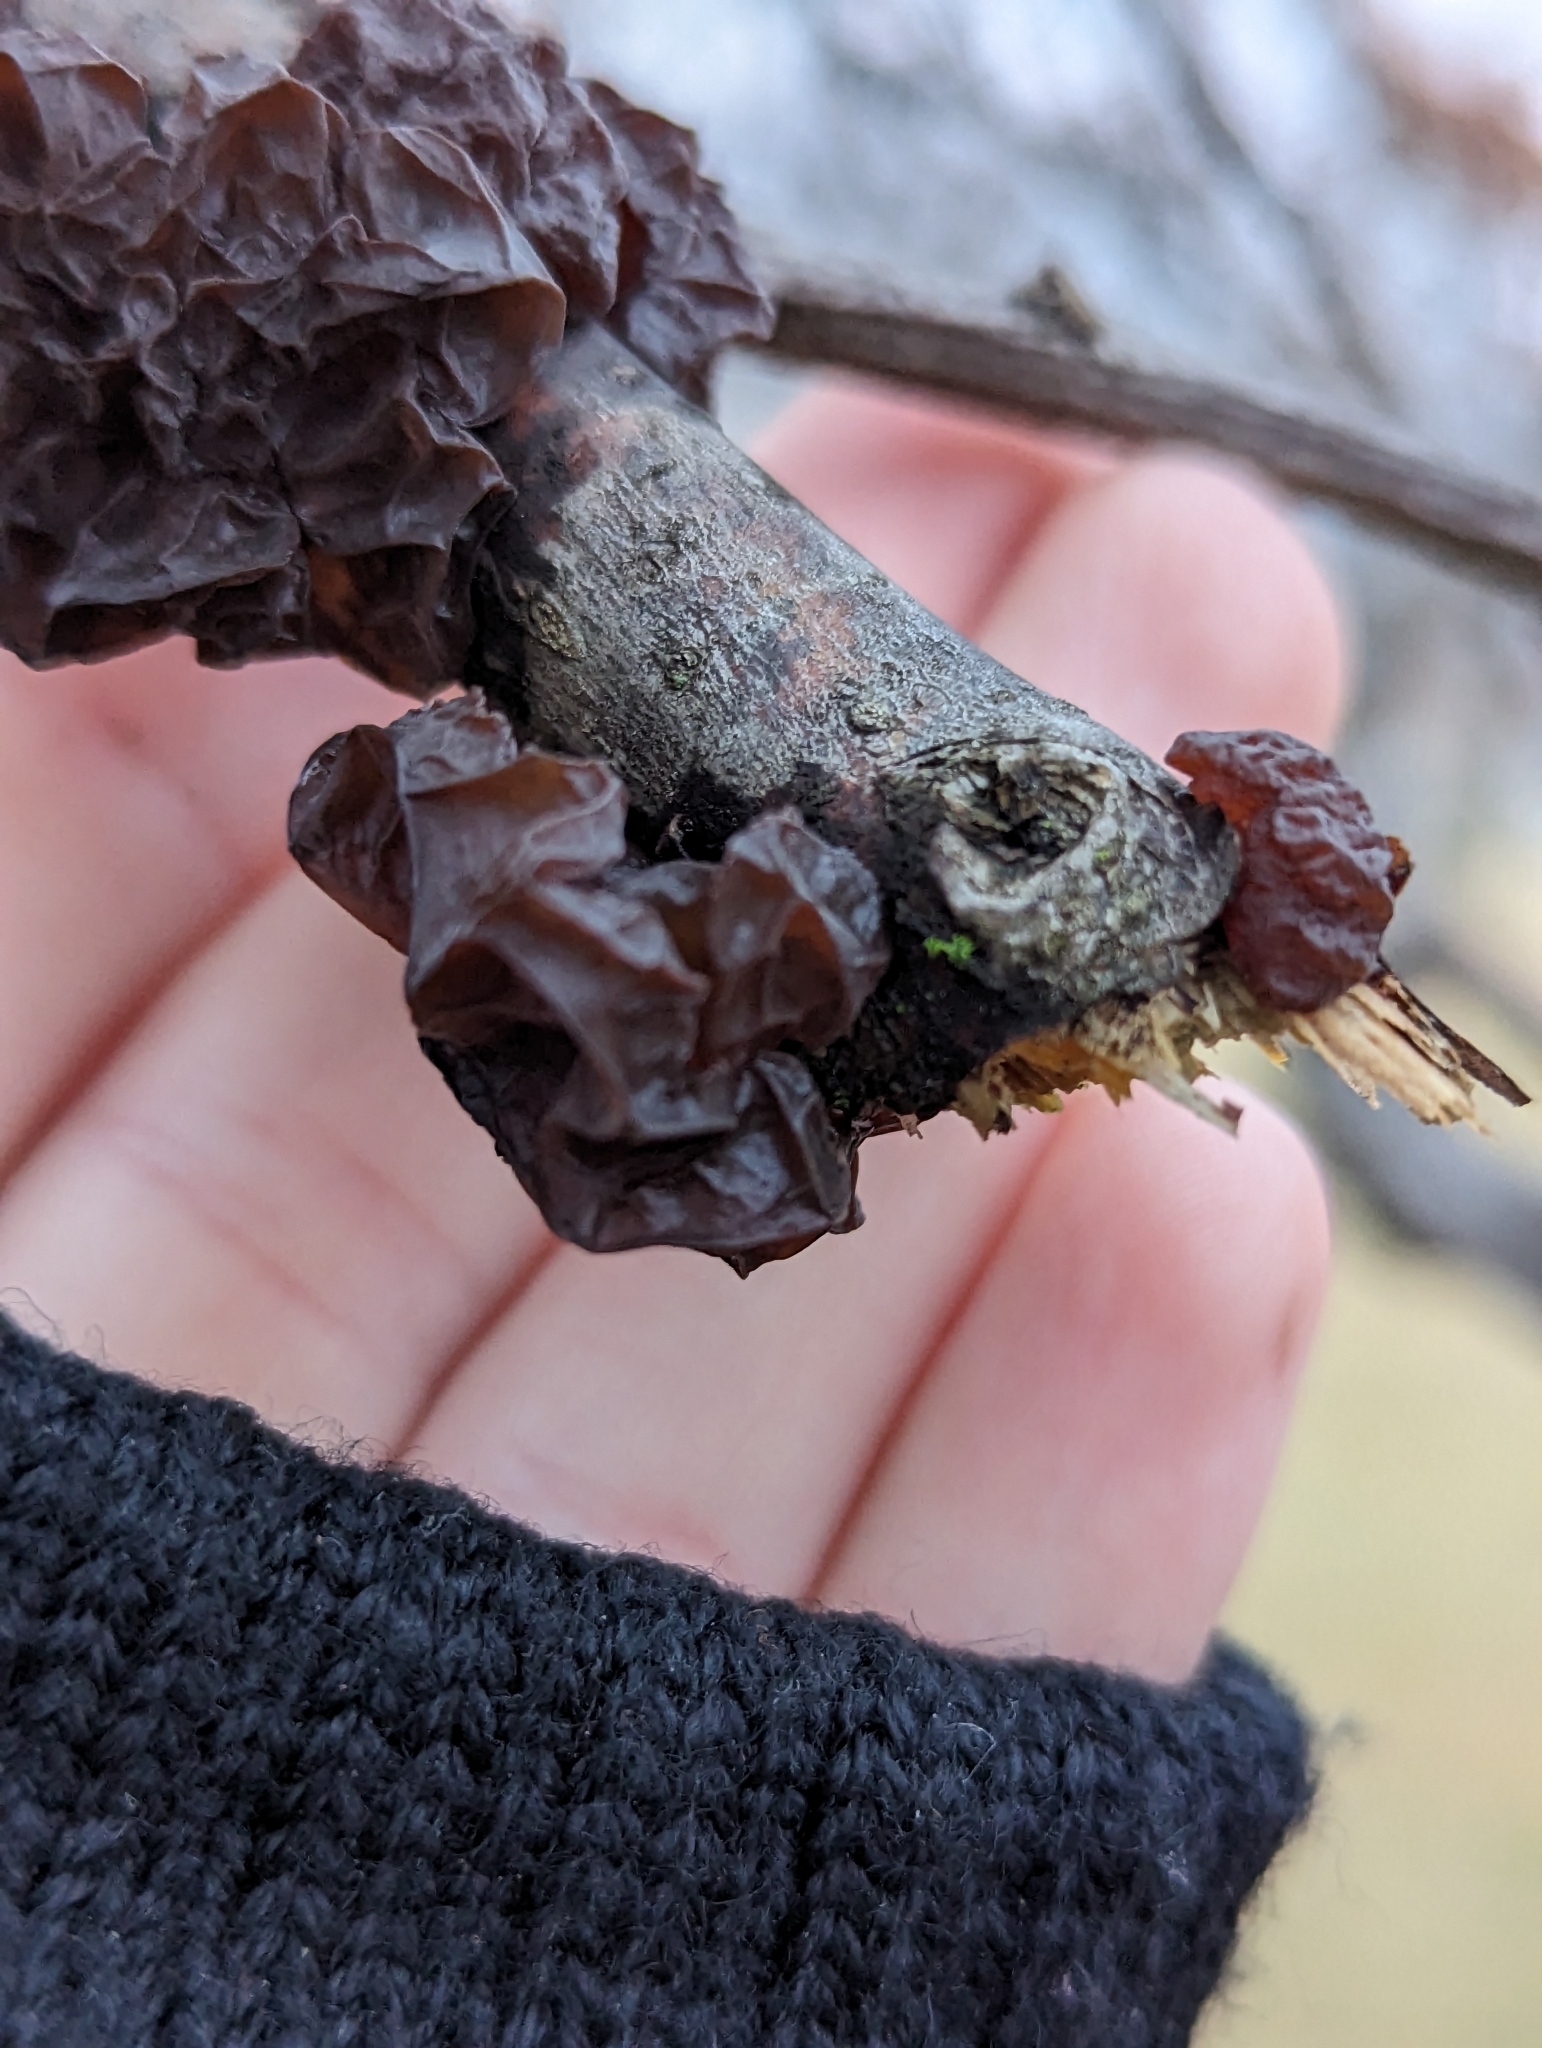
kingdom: Fungi
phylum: Basidiomycota
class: Agaricomycetes
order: Auriculariales
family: Auriculariaceae
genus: Exidia
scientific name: Exidia
